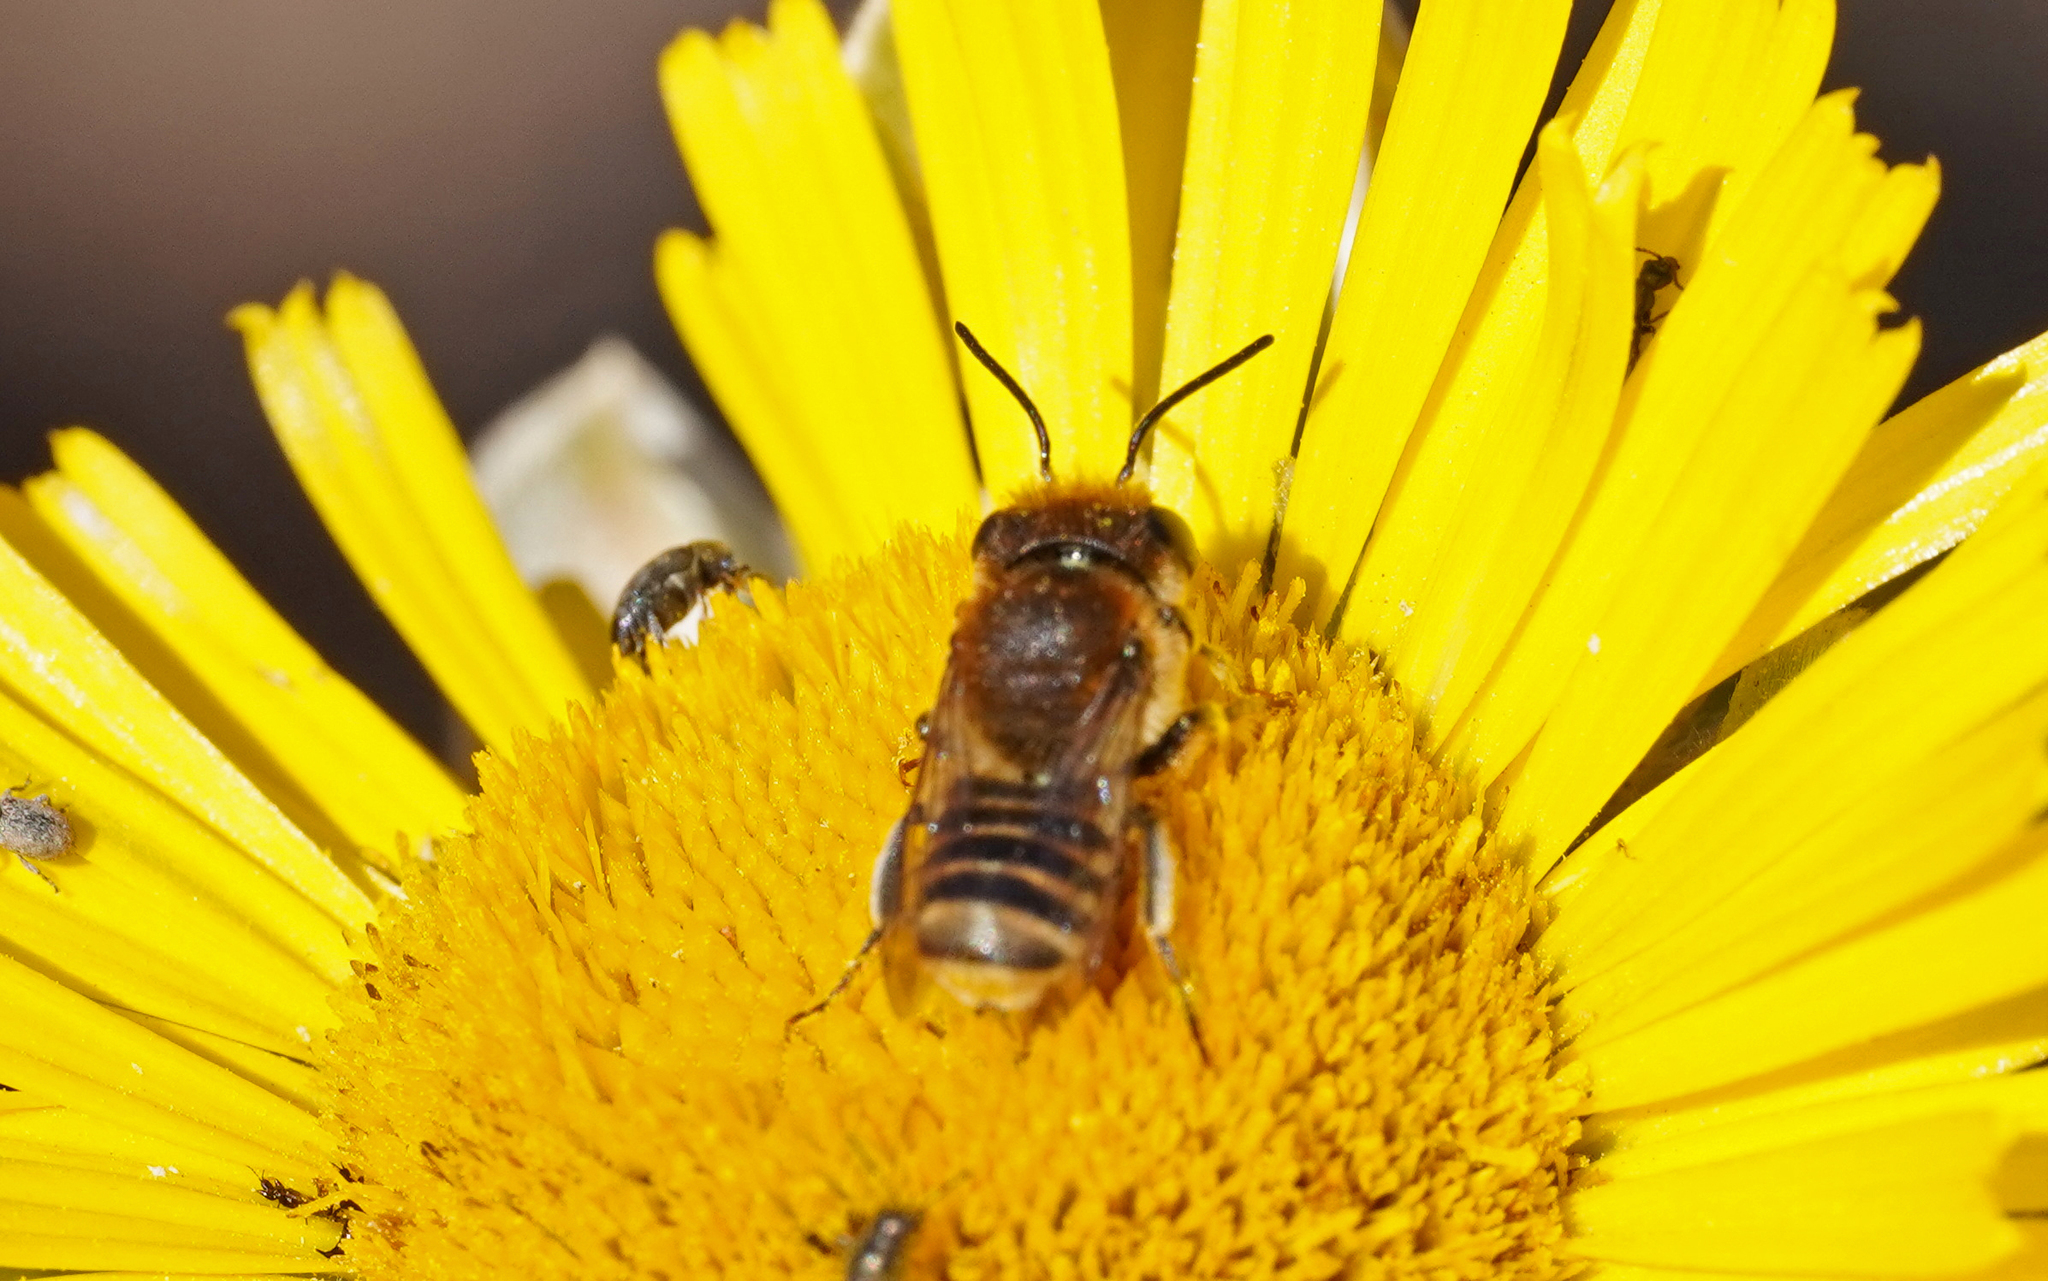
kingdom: Animalia
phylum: Arthropoda
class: Insecta
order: Hymenoptera
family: Megachilidae
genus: Megachile
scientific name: Megachile binominata
